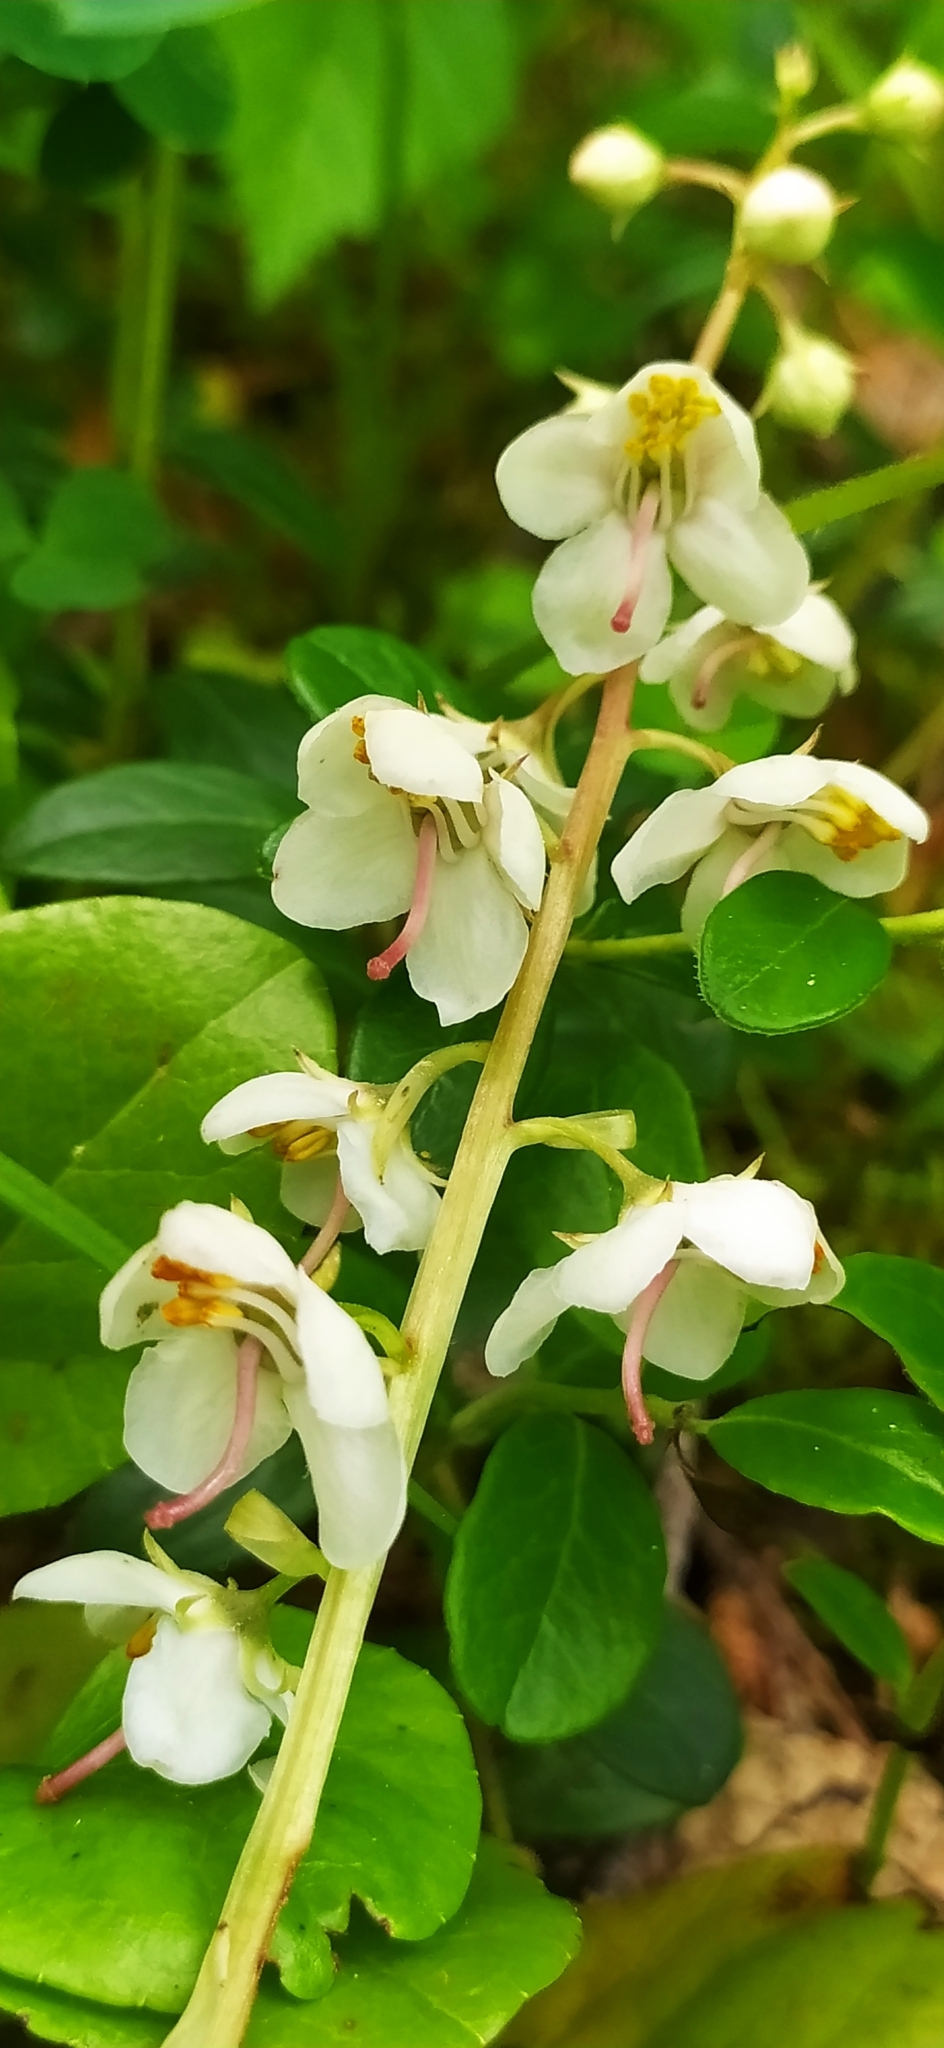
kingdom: Plantae
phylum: Tracheophyta
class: Magnoliopsida
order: Ericales
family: Ericaceae
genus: Pyrola
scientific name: Pyrola rotundifolia
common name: Round-leaved wintergreen
